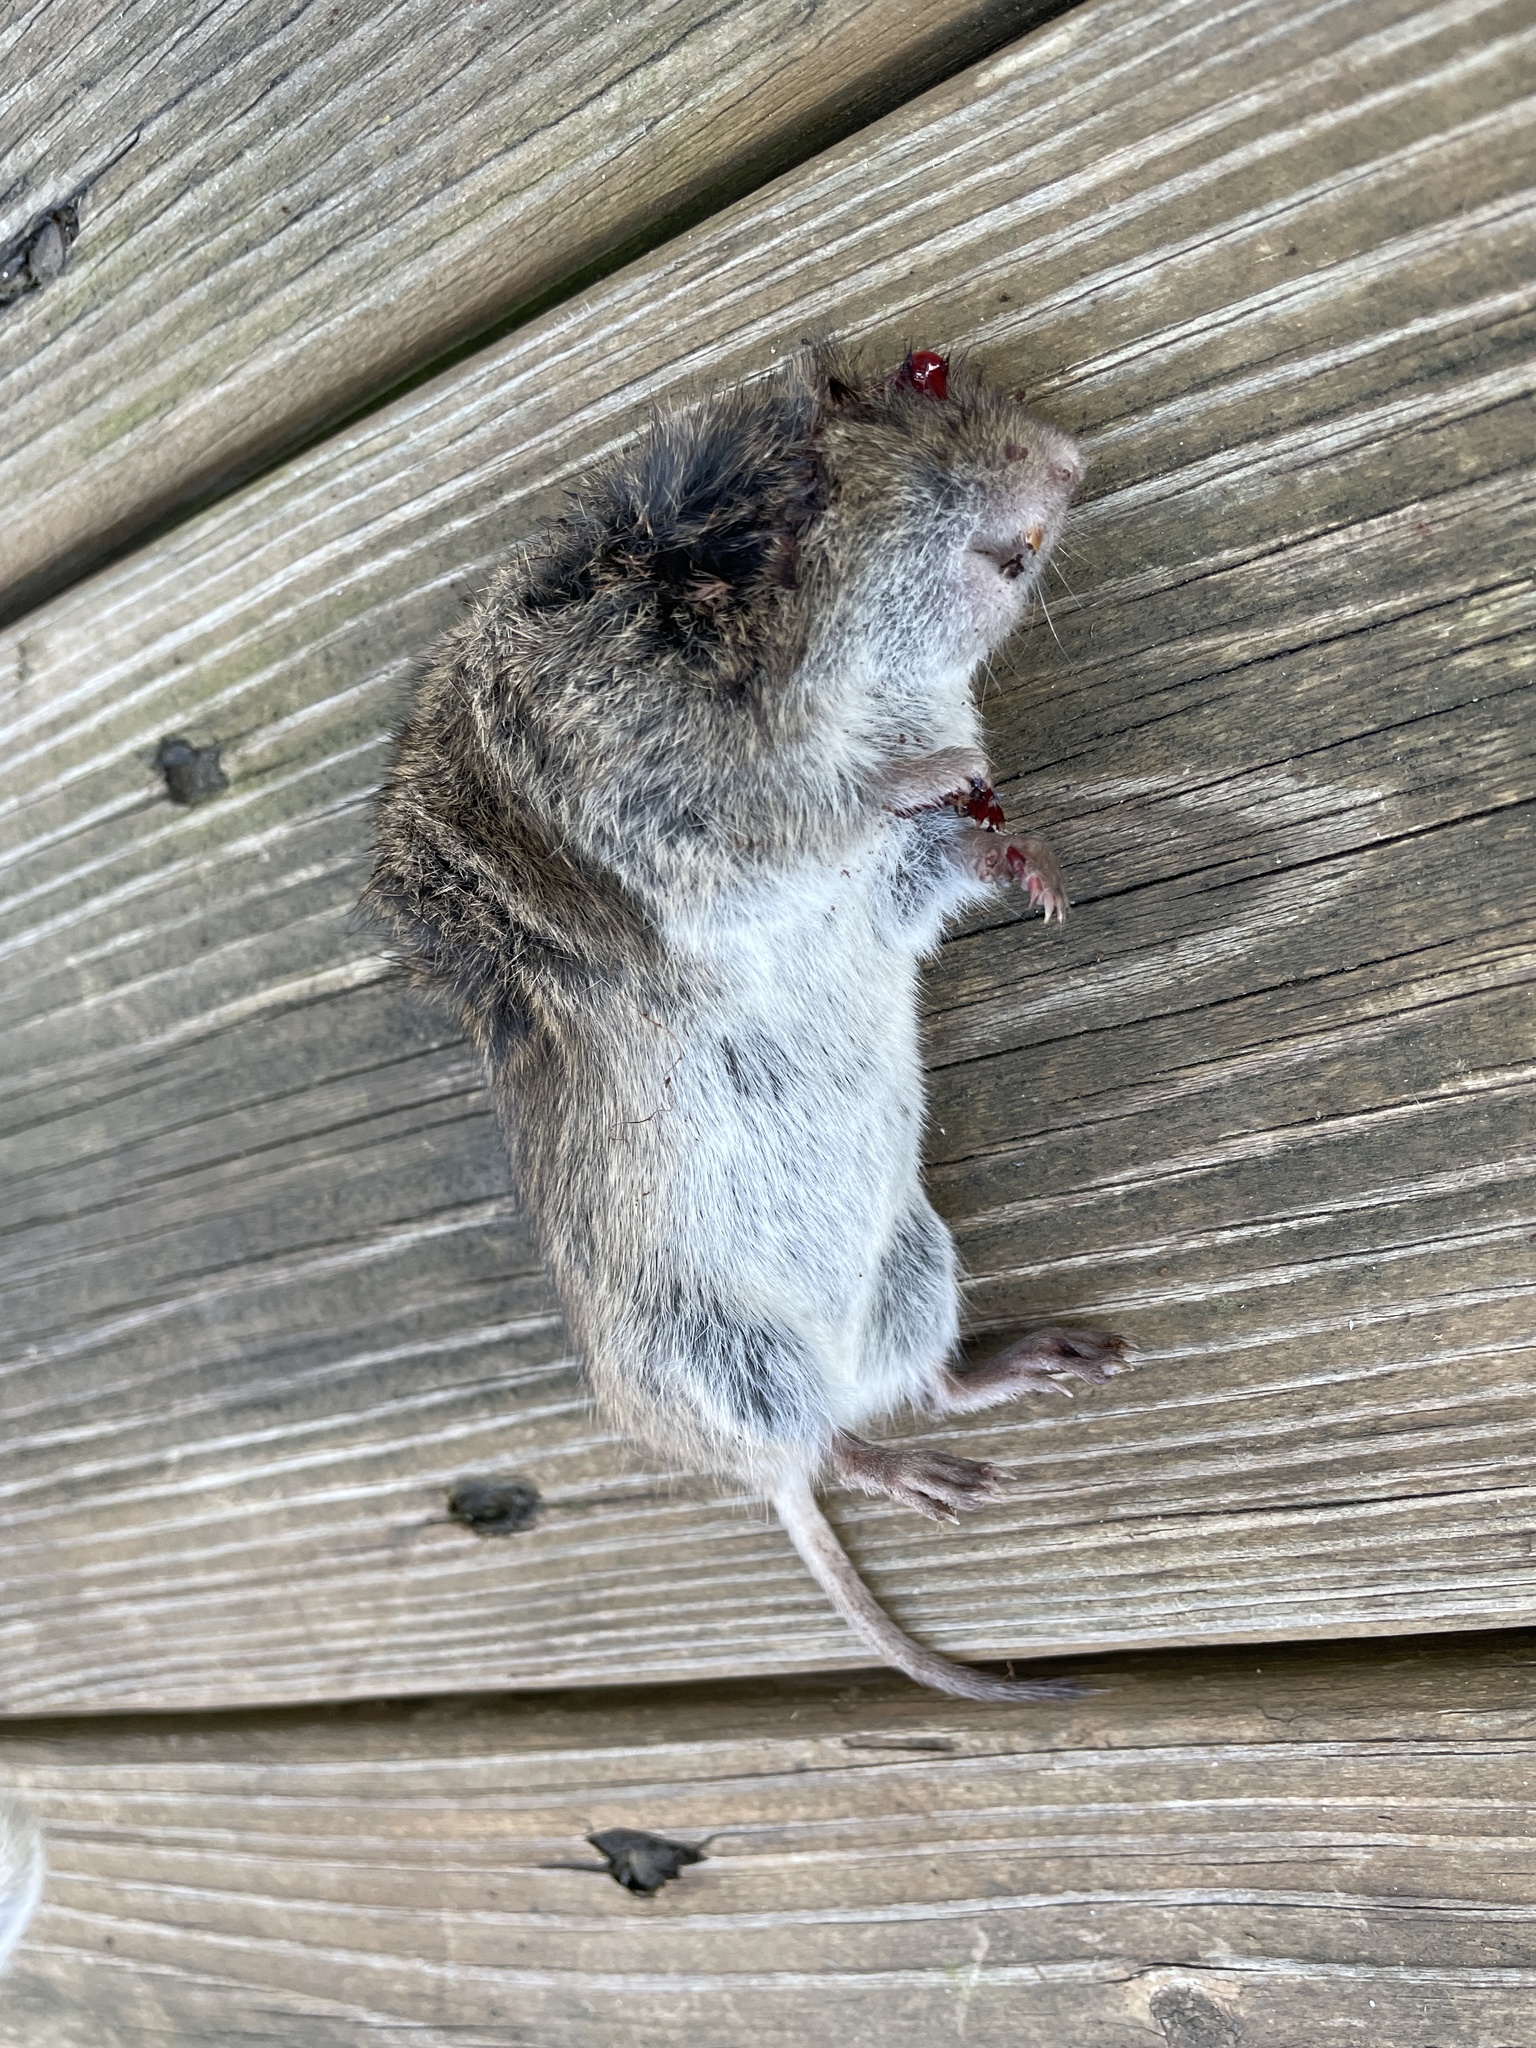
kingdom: Animalia
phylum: Chordata
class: Mammalia
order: Rodentia
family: Cricetidae
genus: Microtus
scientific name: Microtus pennsylvanicus
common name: Meadow vole
